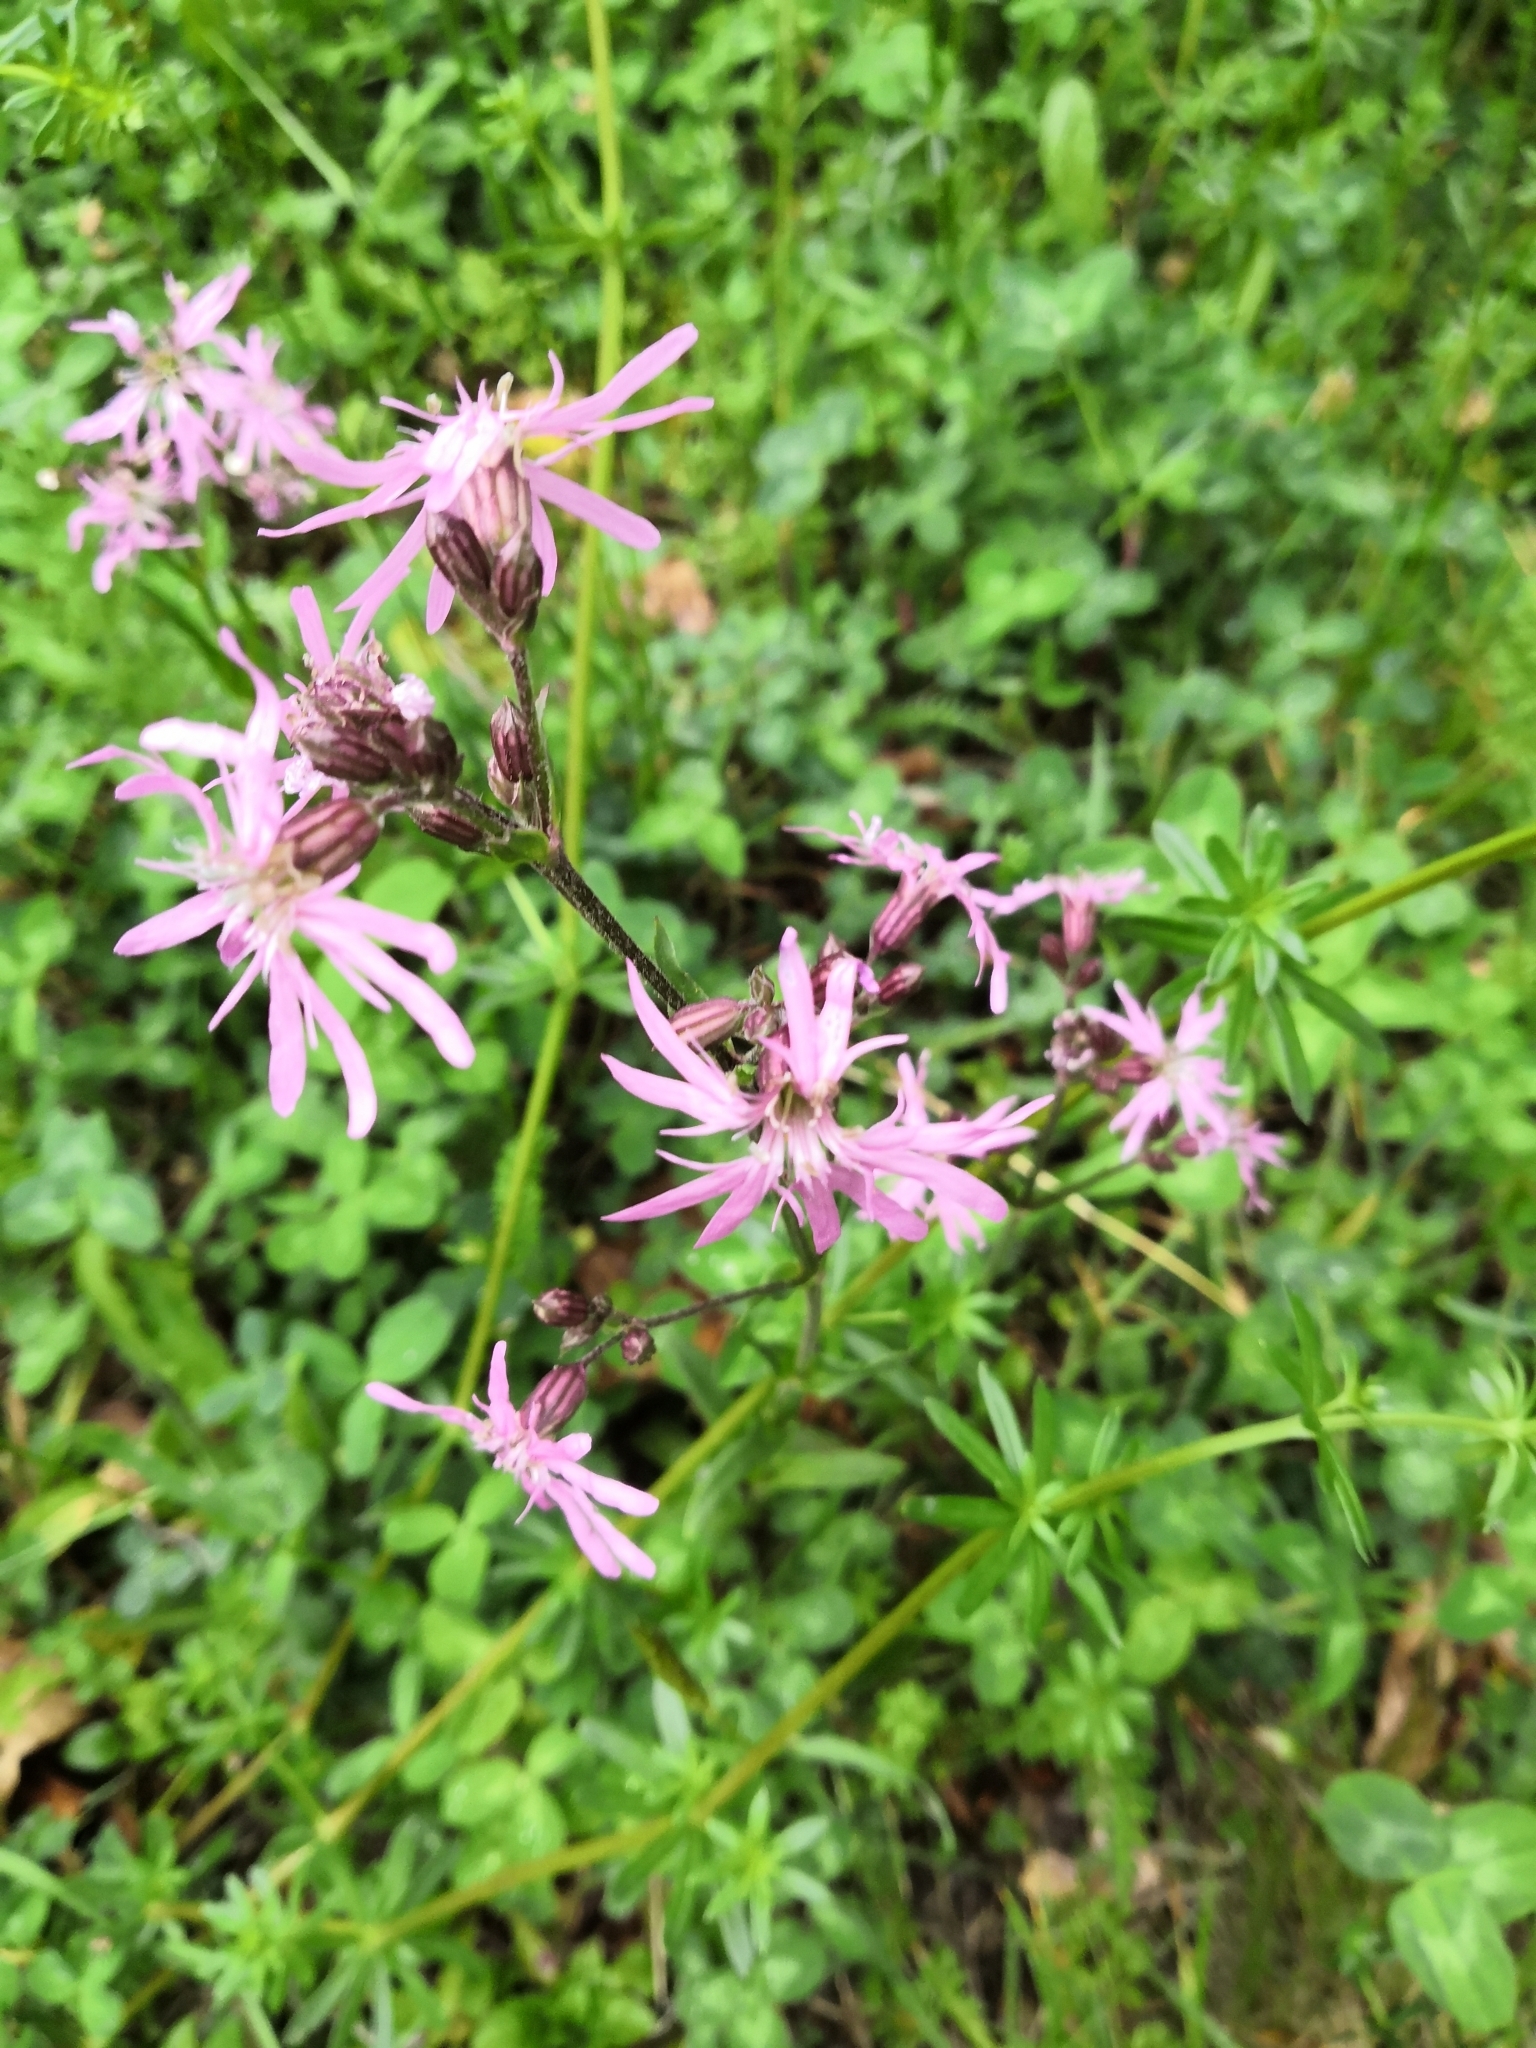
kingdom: Plantae
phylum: Tracheophyta
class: Magnoliopsida
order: Caryophyllales
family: Caryophyllaceae
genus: Silene
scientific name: Silene flos-cuculi
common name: Ragged-robin
